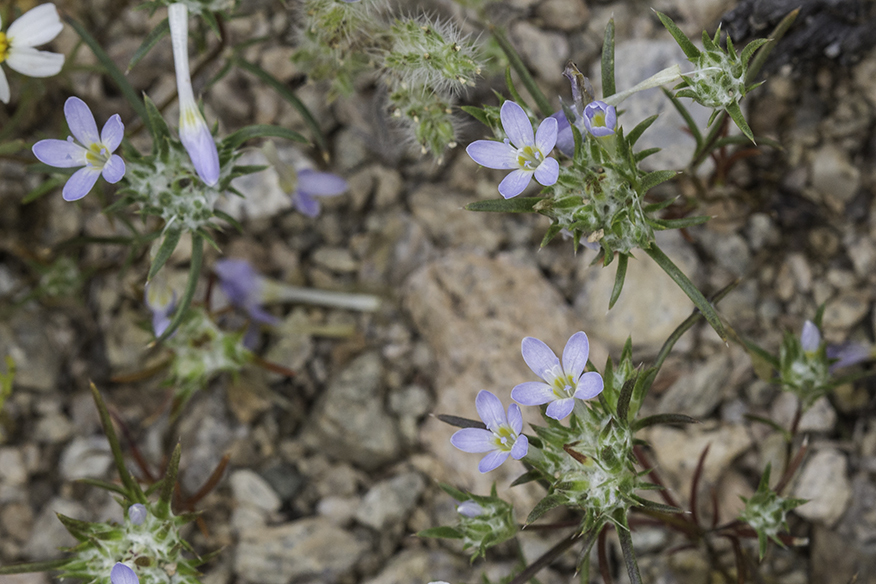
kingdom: Plantae
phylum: Tracheophyta
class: Magnoliopsida
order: Ericales
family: Polemoniaceae
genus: Eriastrum
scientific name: Eriastrum eremicum
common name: Desert eriastrum
